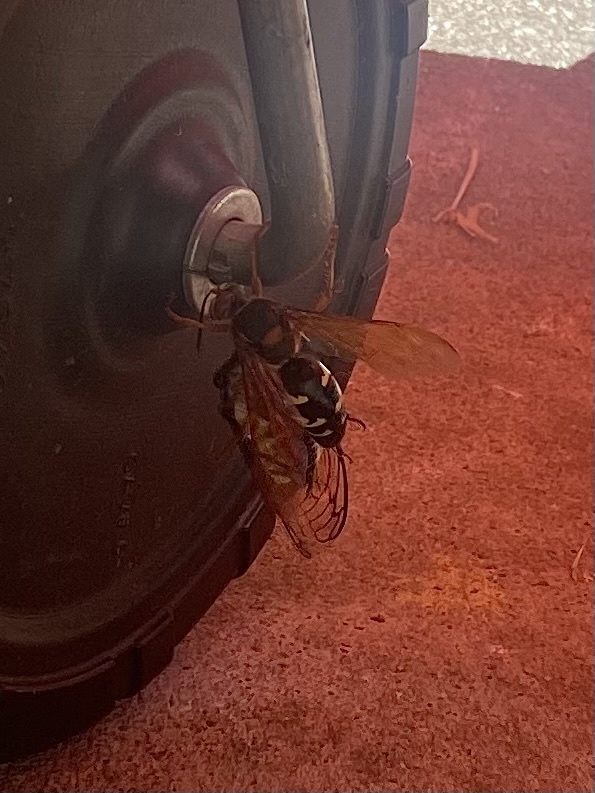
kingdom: Animalia
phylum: Arthropoda
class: Insecta
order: Hymenoptera
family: Crabronidae
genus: Sphecius
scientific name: Sphecius speciosus
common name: Cicada killer
